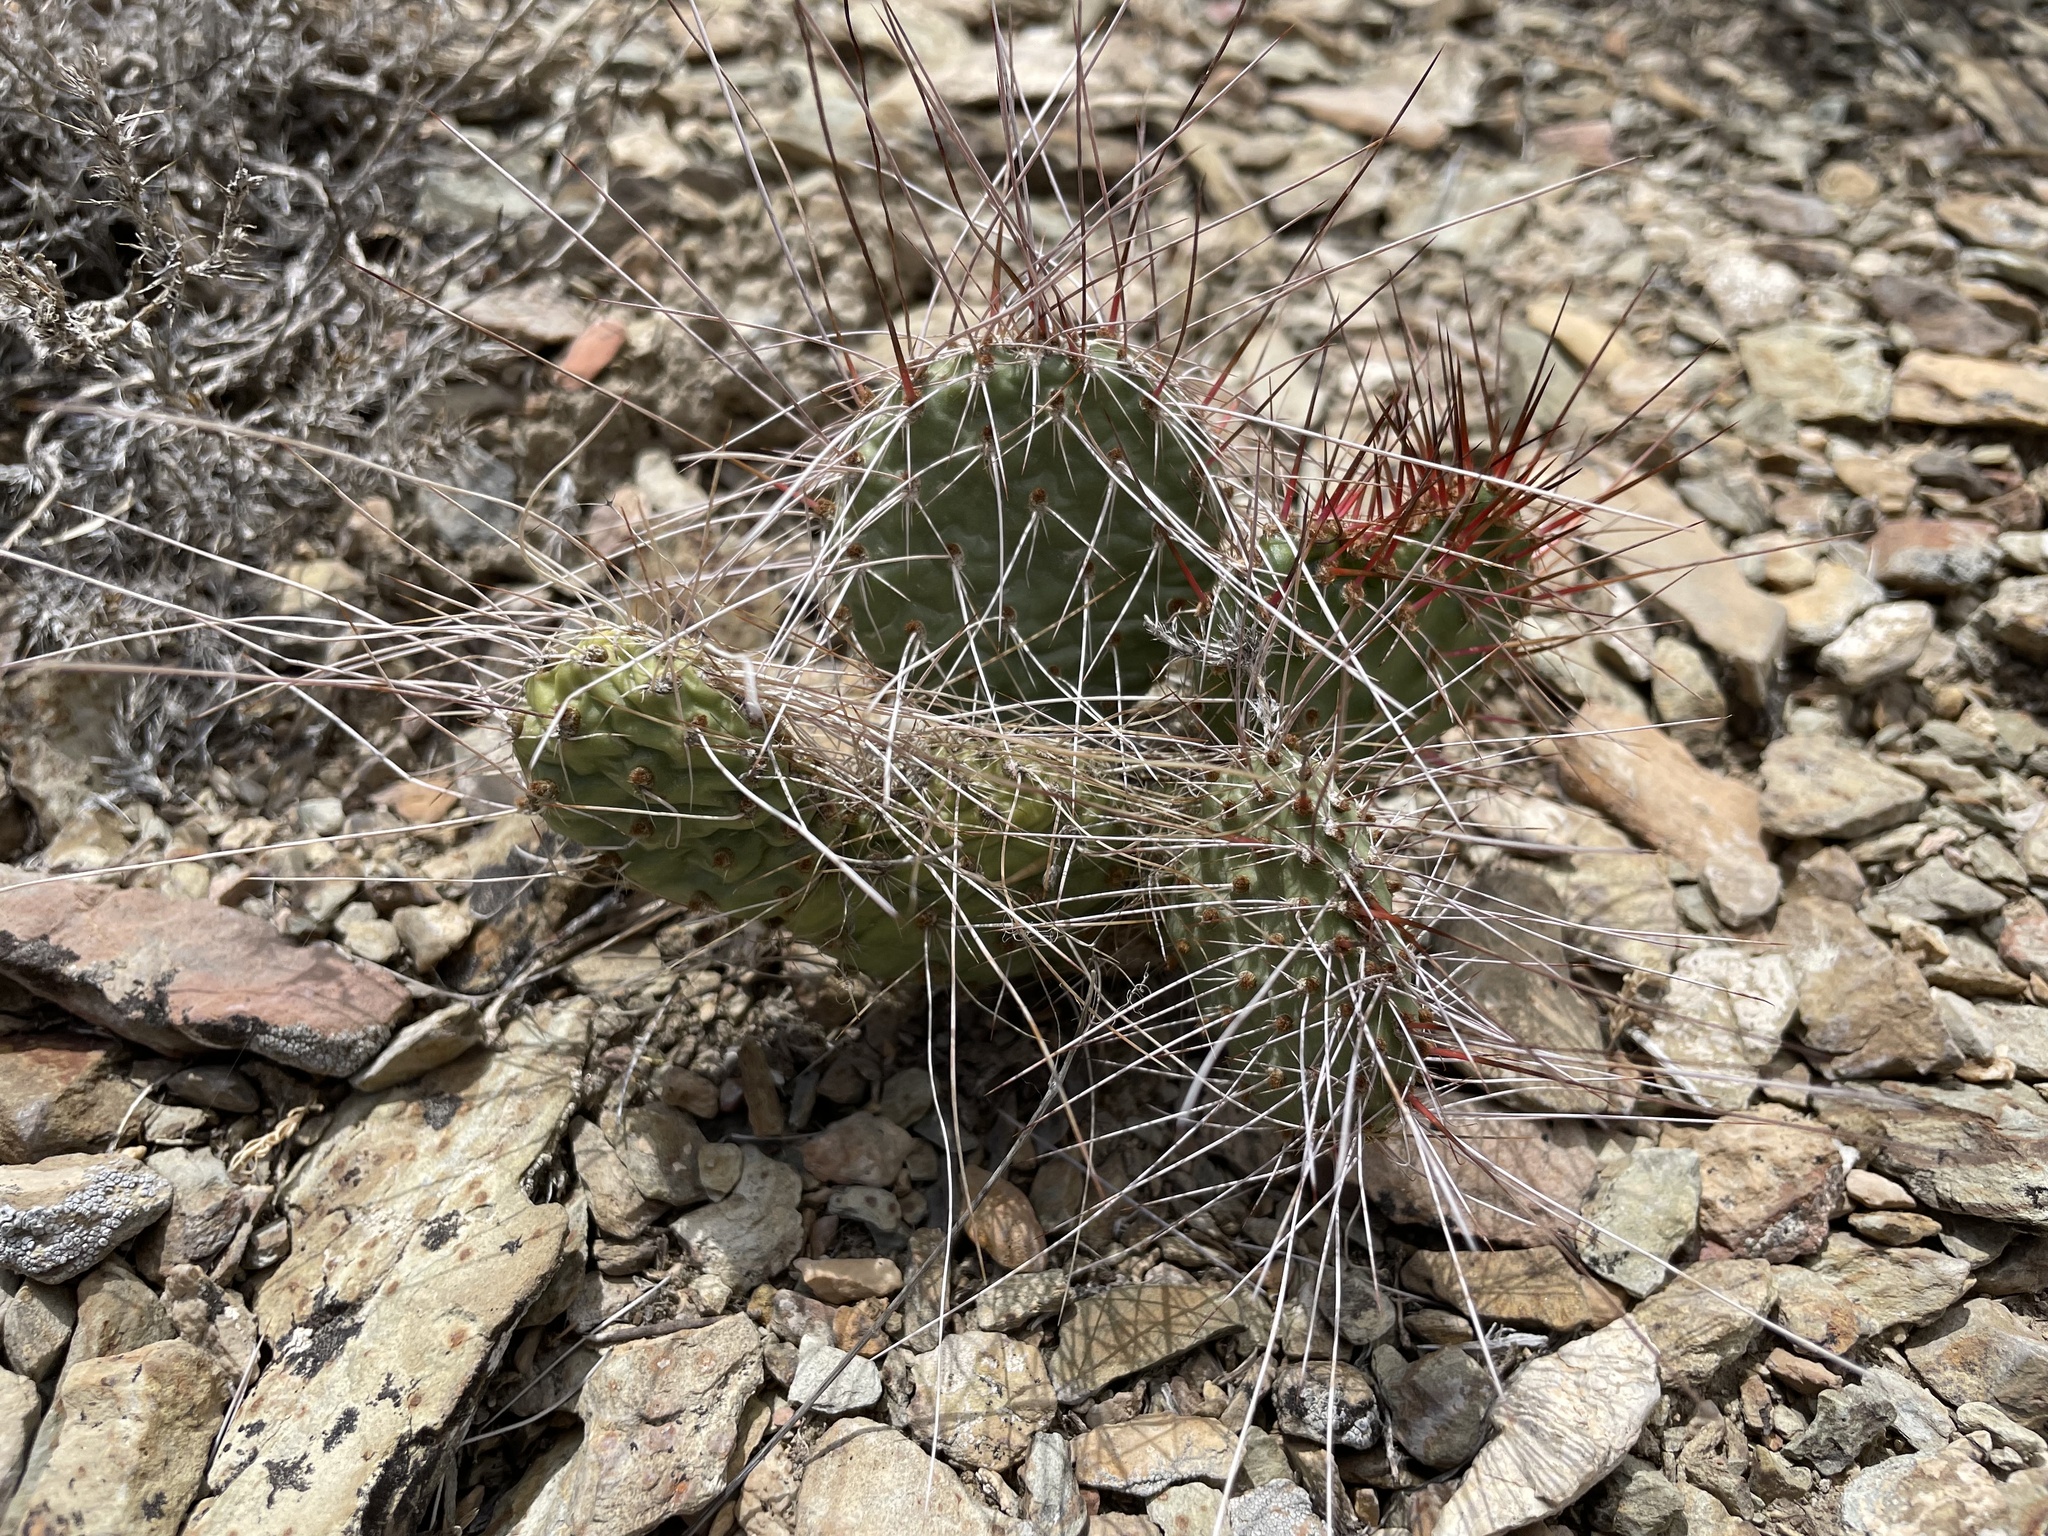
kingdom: Plantae
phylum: Tracheophyta
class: Magnoliopsida
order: Caryophyllales
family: Cactaceae
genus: Opuntia
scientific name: Opuntia polyacantha
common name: Plains prickly-pear
